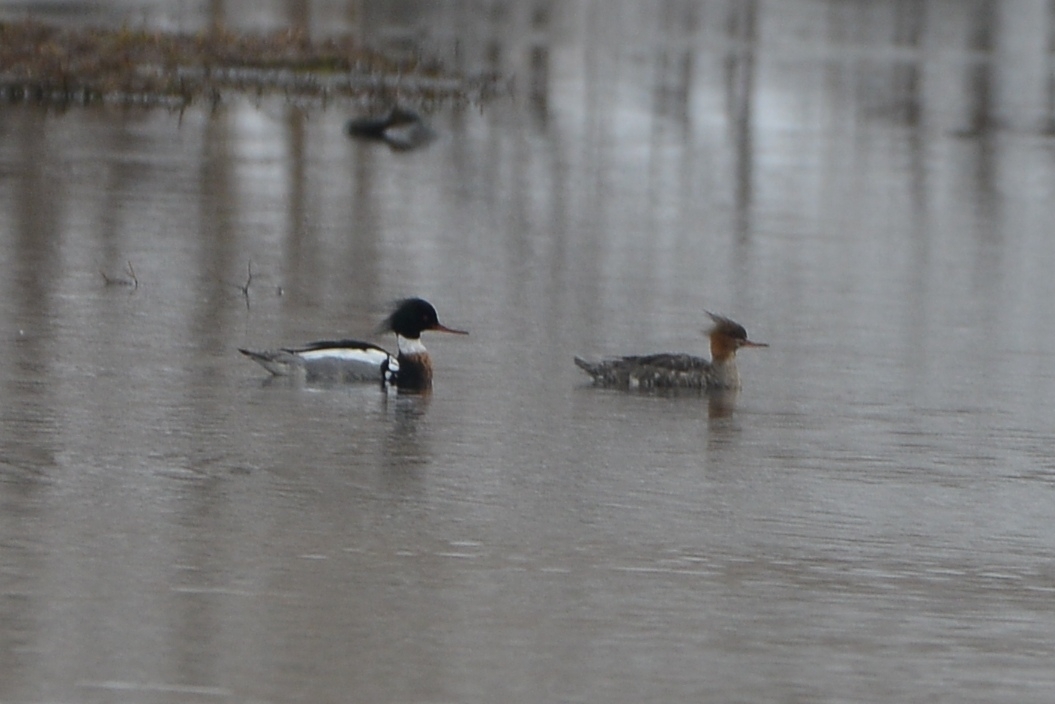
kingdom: Animalia
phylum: Chordata
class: Aves
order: Anseriformes
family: Anatidae
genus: Mergus
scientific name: Mergus serrator
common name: Red-breasted merganser
